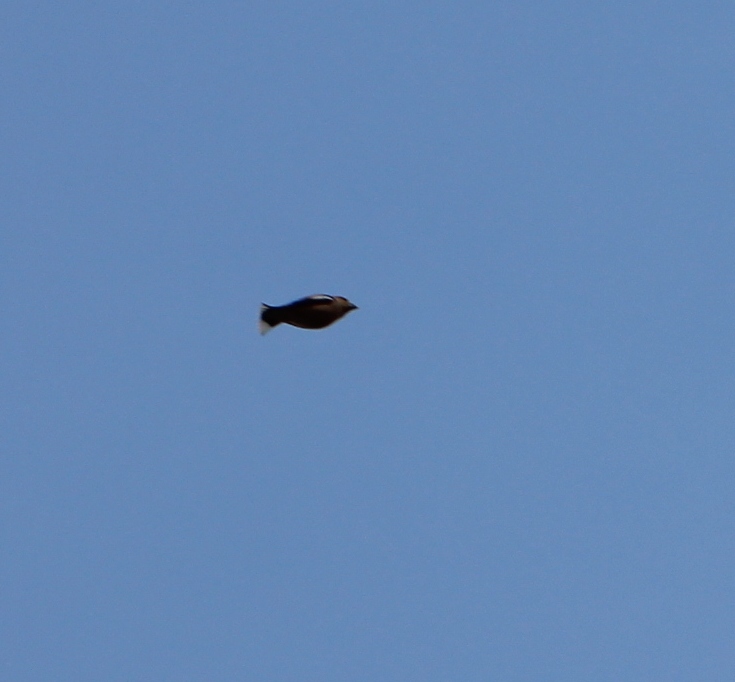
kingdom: Animalia
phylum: Chordata
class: Aves
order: Passeriformes
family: Fringillidae
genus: Coccothraustes
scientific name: Coccothraustes coccothraustes
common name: Hawfinch
